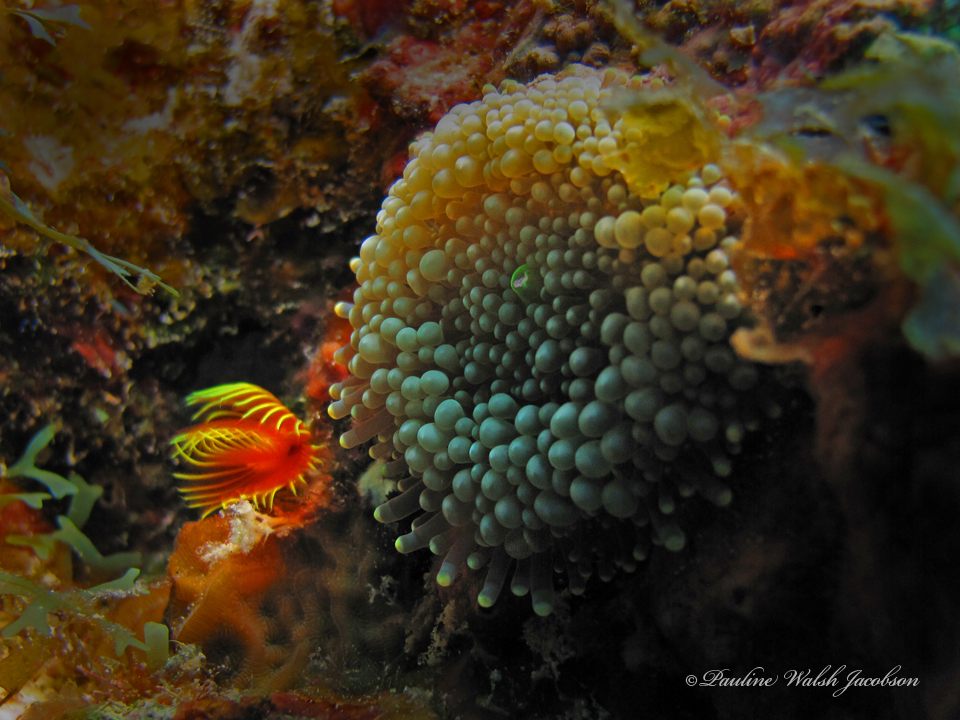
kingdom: Animalia
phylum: Cnidaria
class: Anthozoa
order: Corallimorpharia
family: Ricordeidae
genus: Ricordea
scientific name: Ricordea florida
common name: False coral
